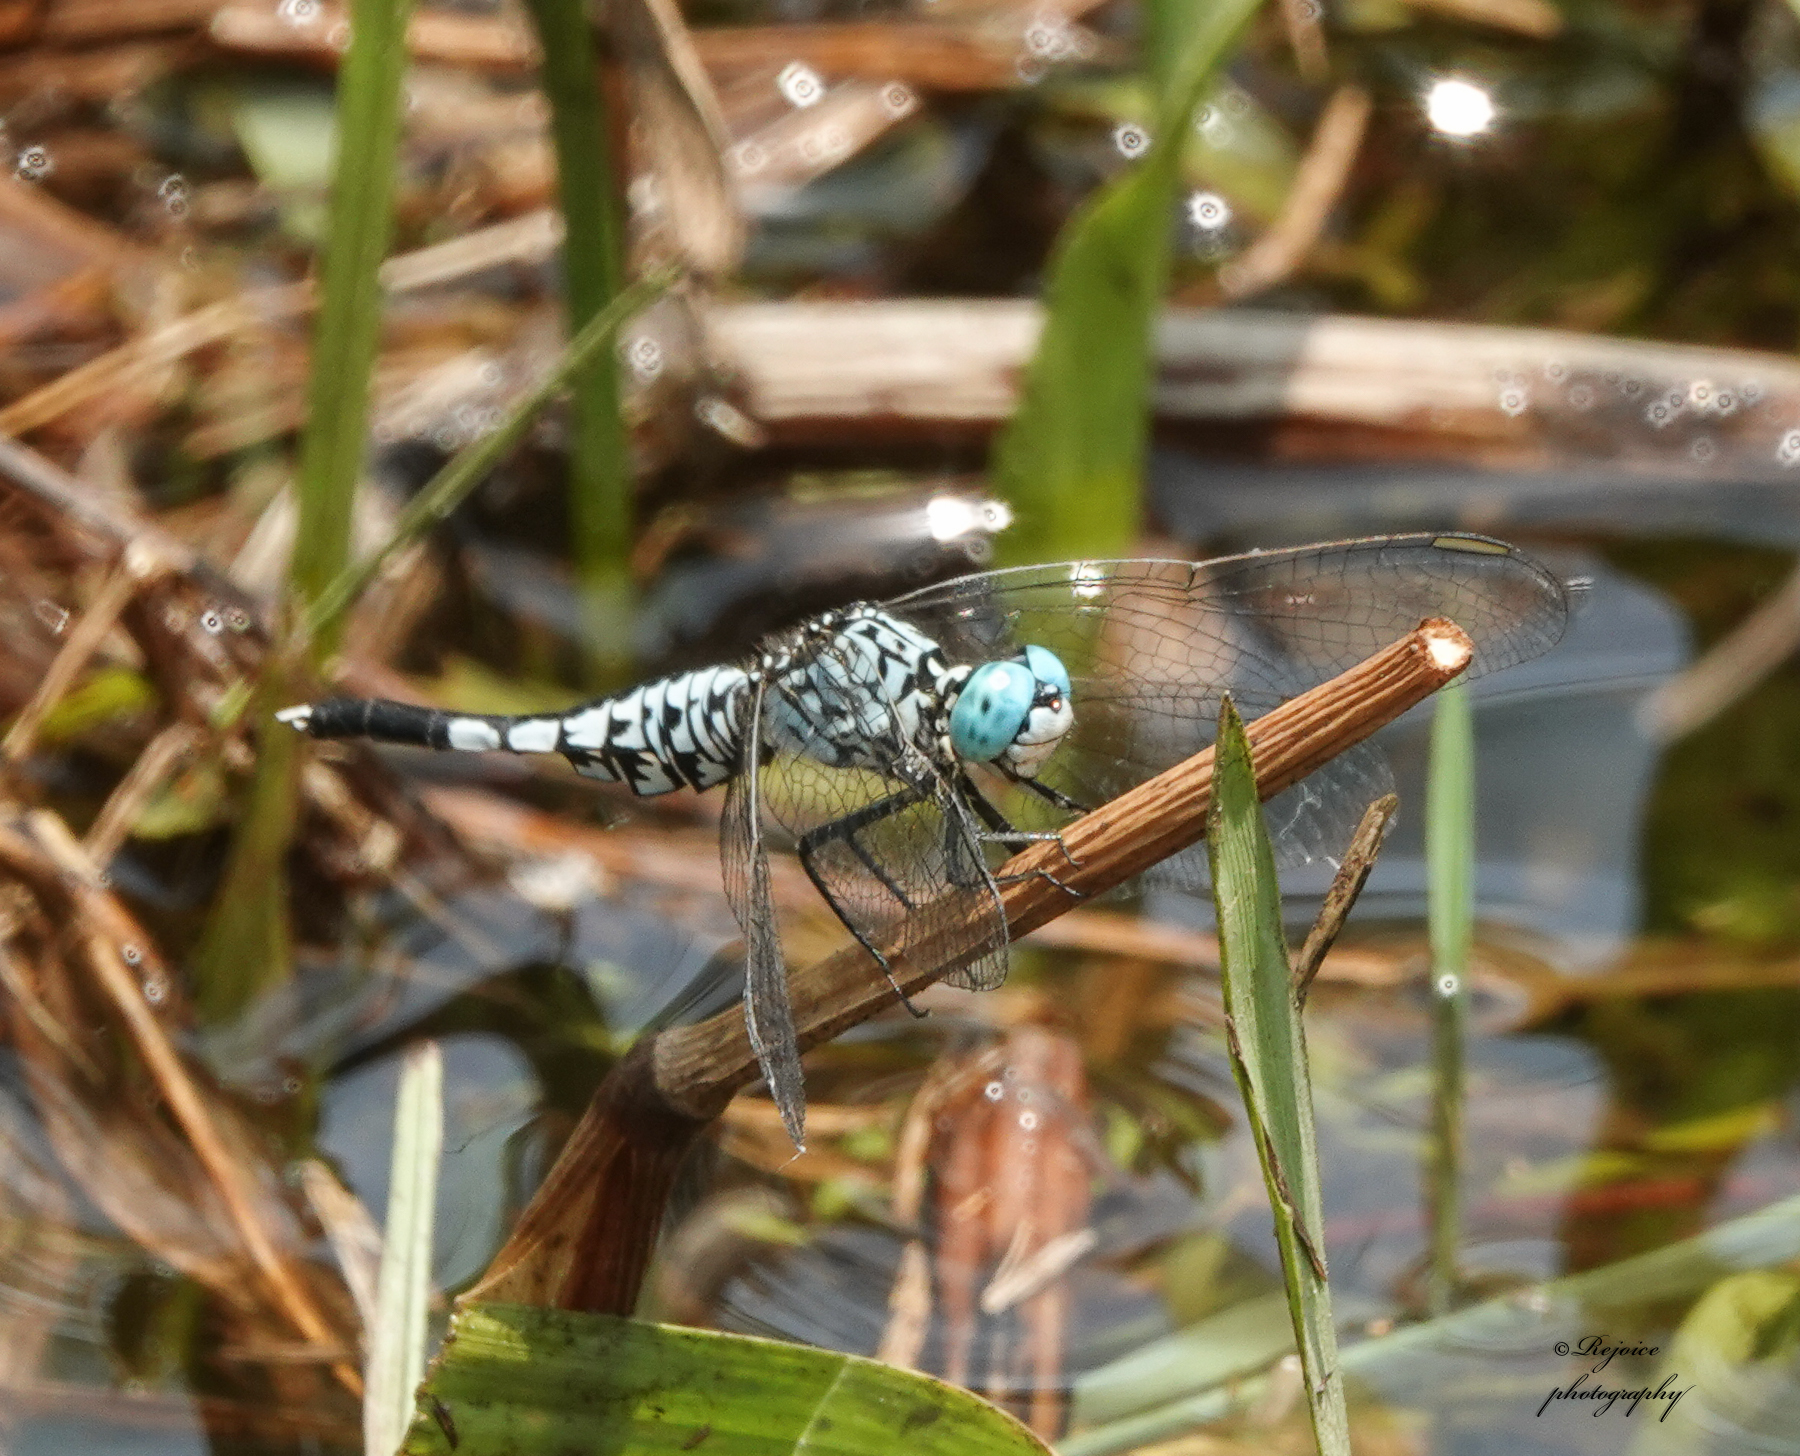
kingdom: Animalia
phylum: Arthropoda
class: Insecta
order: Odonata
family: Libellulidae
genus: Acisoma
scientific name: Acisoma panorpoides
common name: Asian pintail
